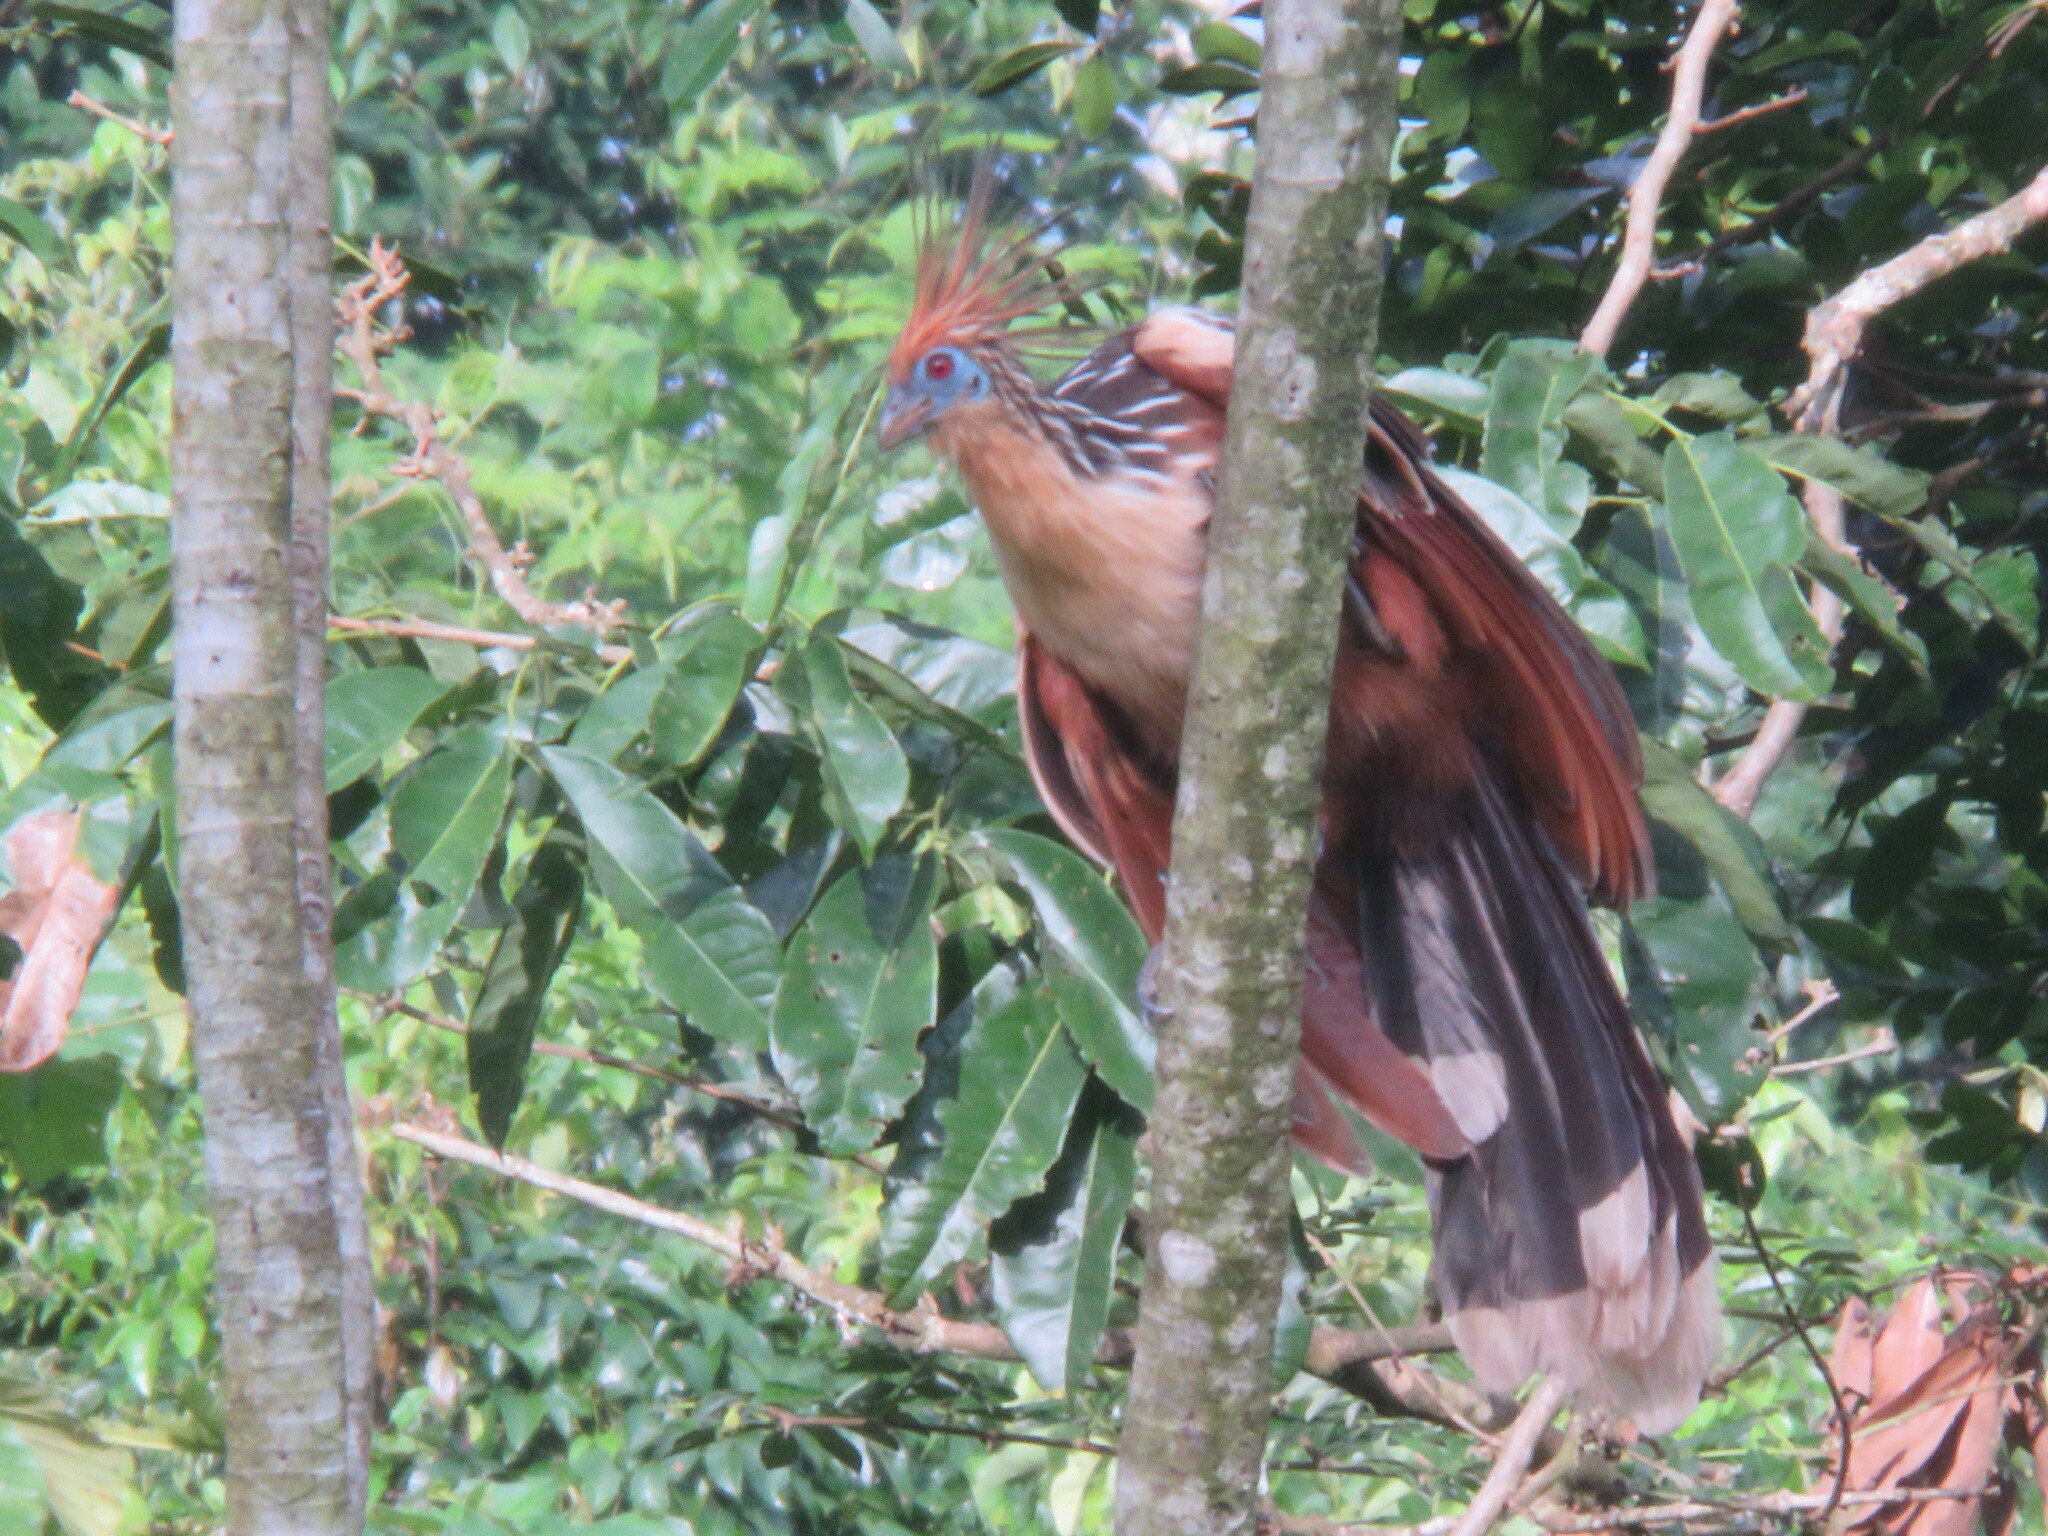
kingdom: Animalia
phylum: Chordata
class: Aves
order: Opisthocomiformes
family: Opisthocomidae
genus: Opisthocomus
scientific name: Opisthocomus hoazin
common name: Hoatzin
